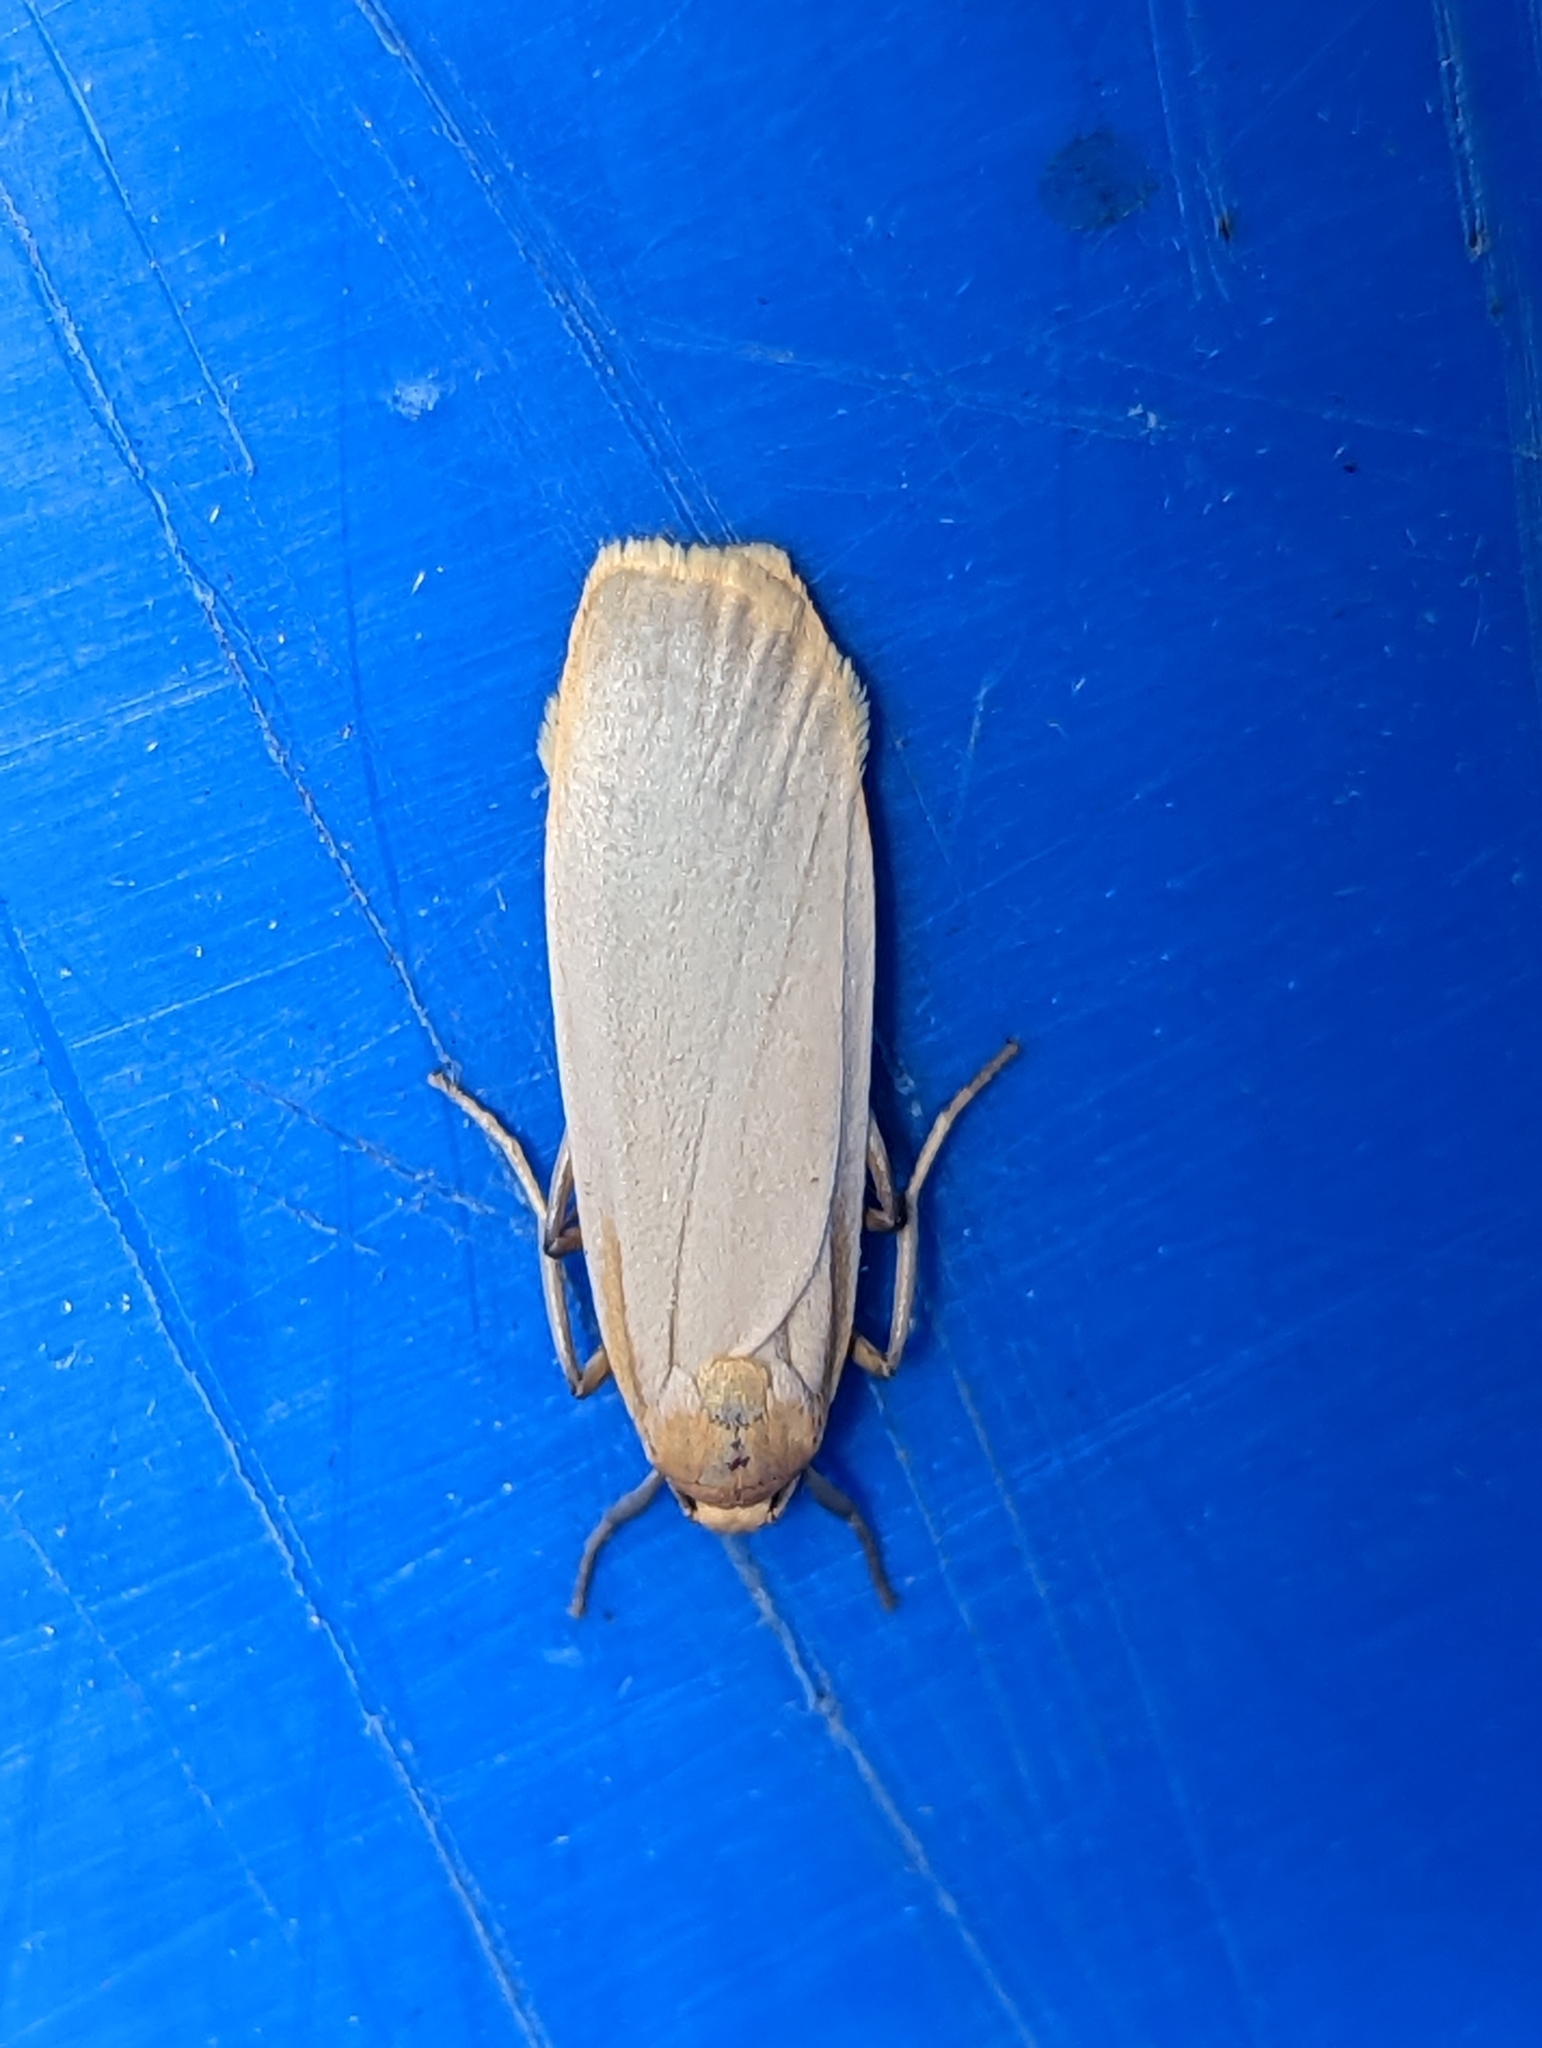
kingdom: Animalia
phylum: Arthropoda
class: Insecta
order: Lepidoptera
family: Erebidae
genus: Katha
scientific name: Katha depressa
